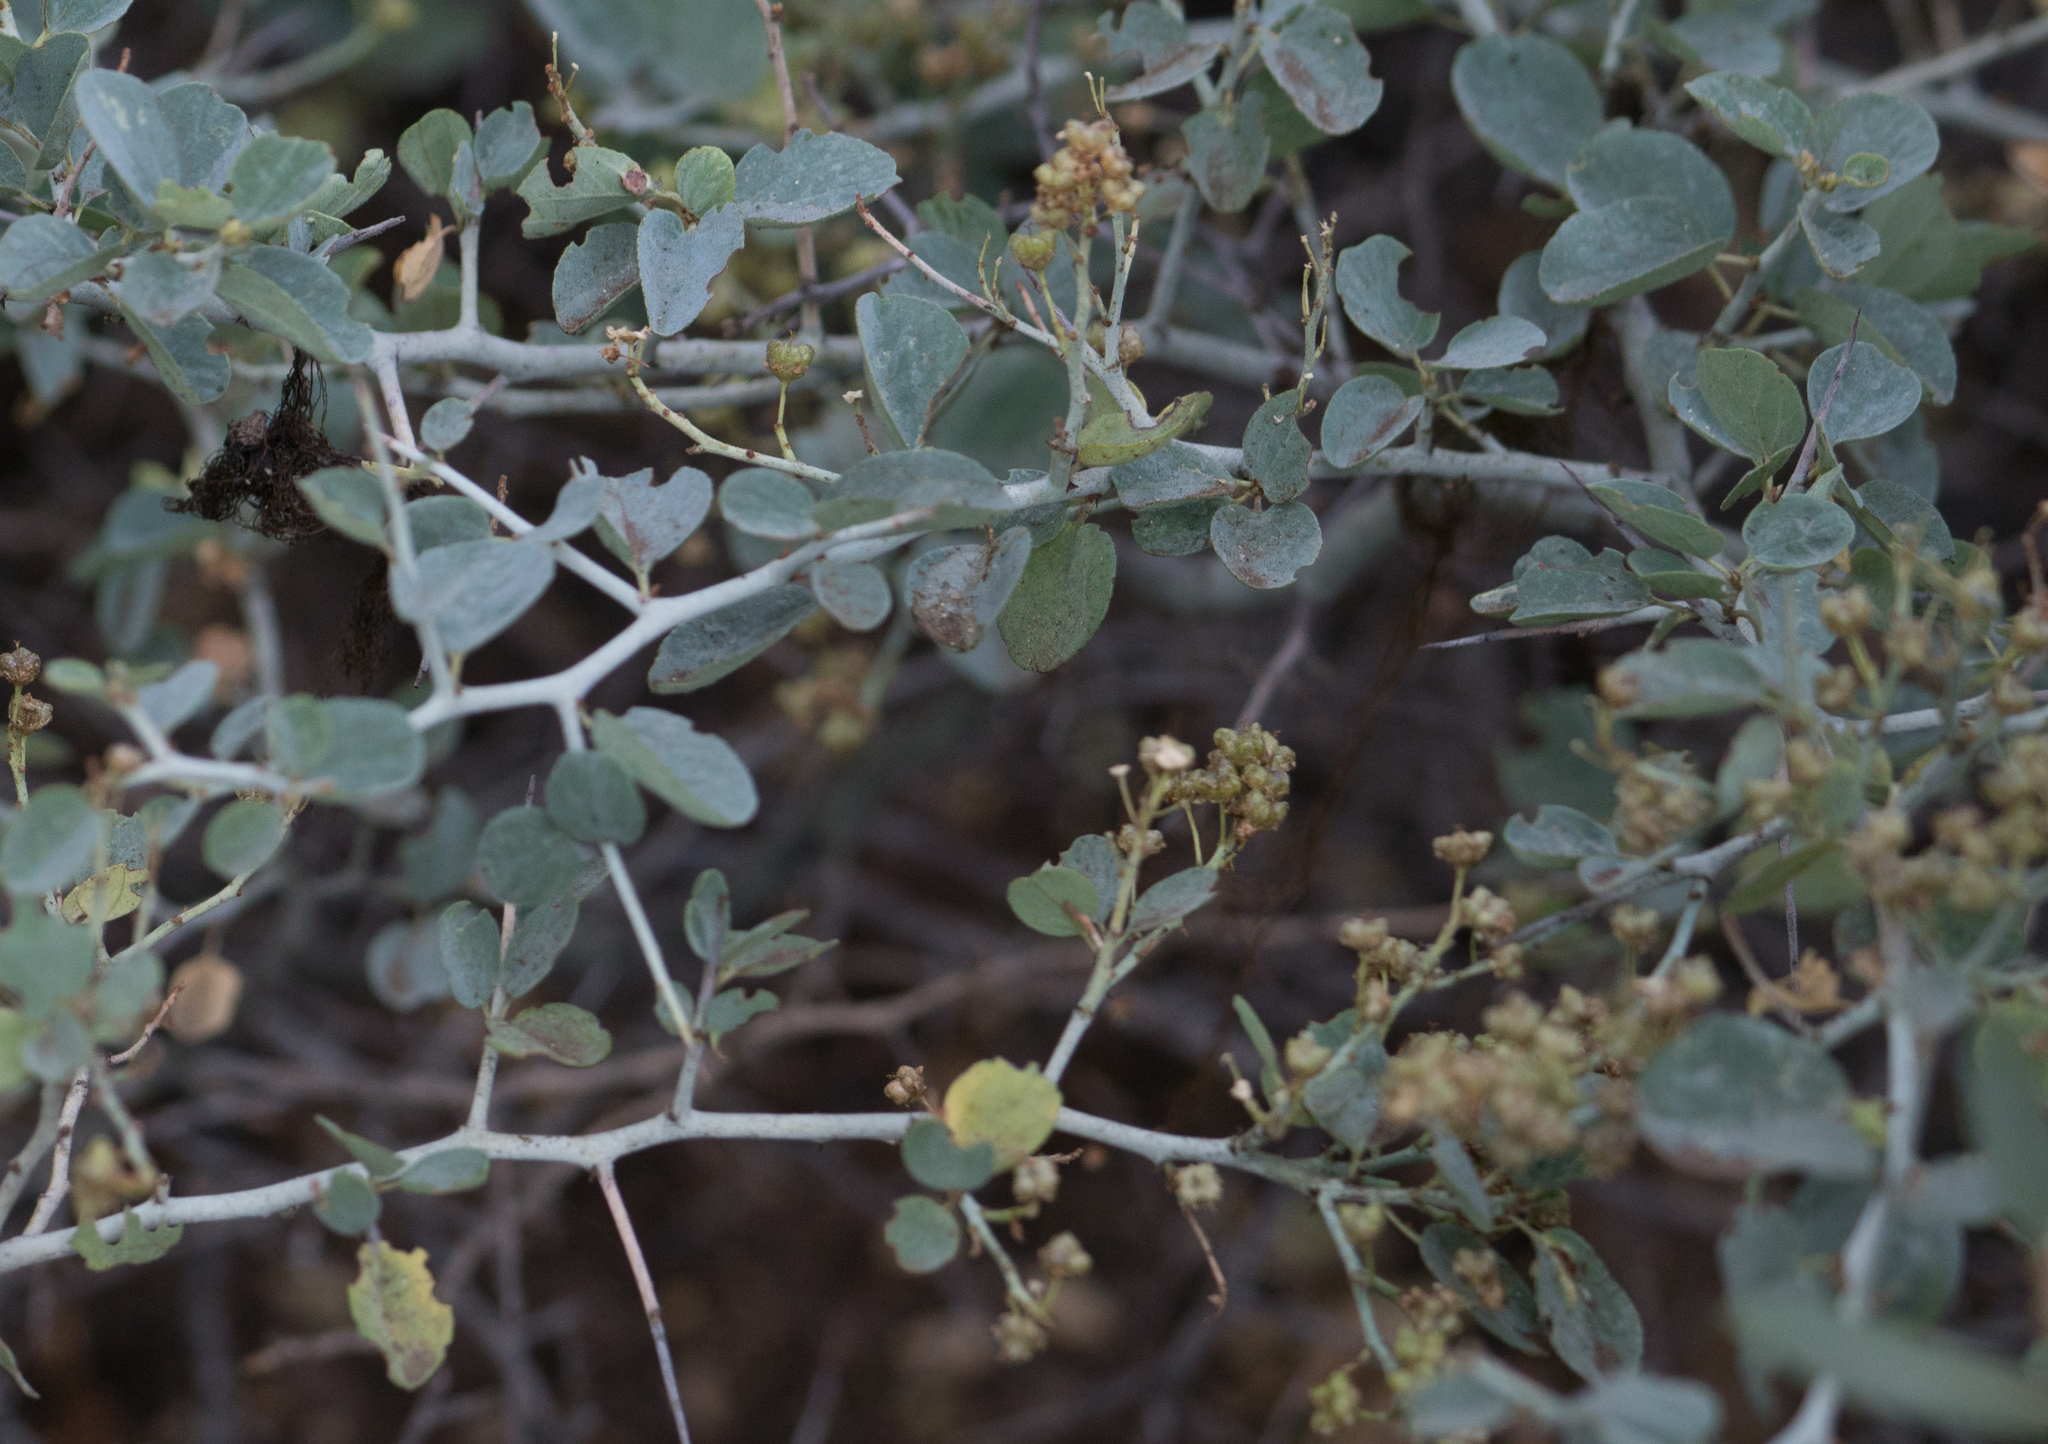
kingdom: Plantae
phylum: Tracheophyta
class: Magnoliopsida
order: Rosales
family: Rhamnaceae
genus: Ceanothus
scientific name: Ceanothus cordulatus
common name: Mountain whitethorn
